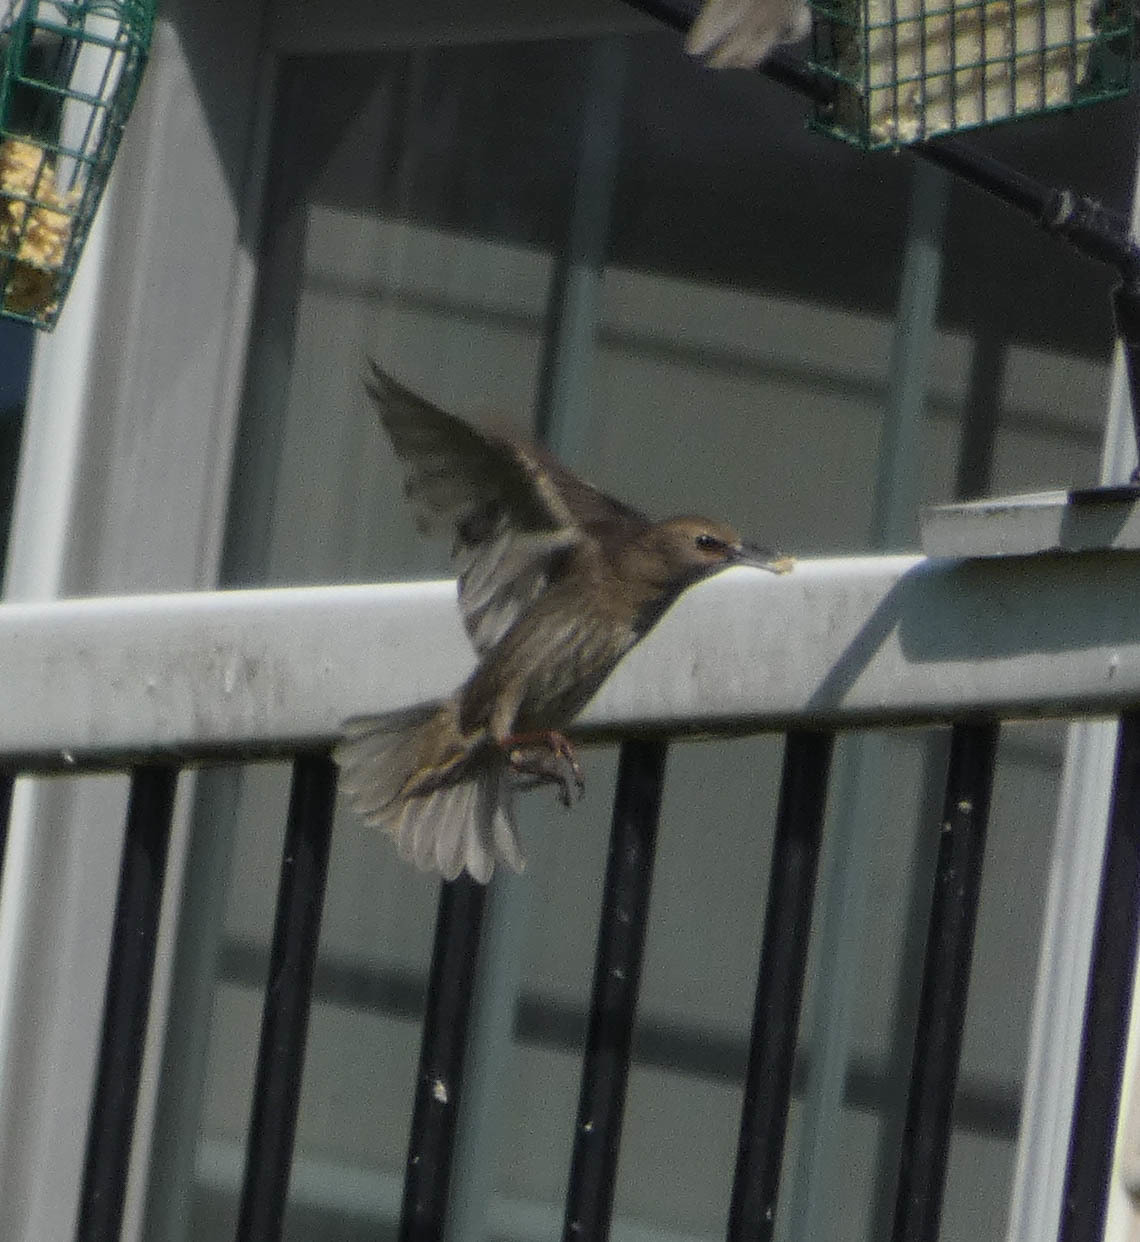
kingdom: Animalia
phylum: Chordata
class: Aves
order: Passeriformes
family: Sturnidae
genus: Sturnus
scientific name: Sturnus vulgaris
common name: Common starling
